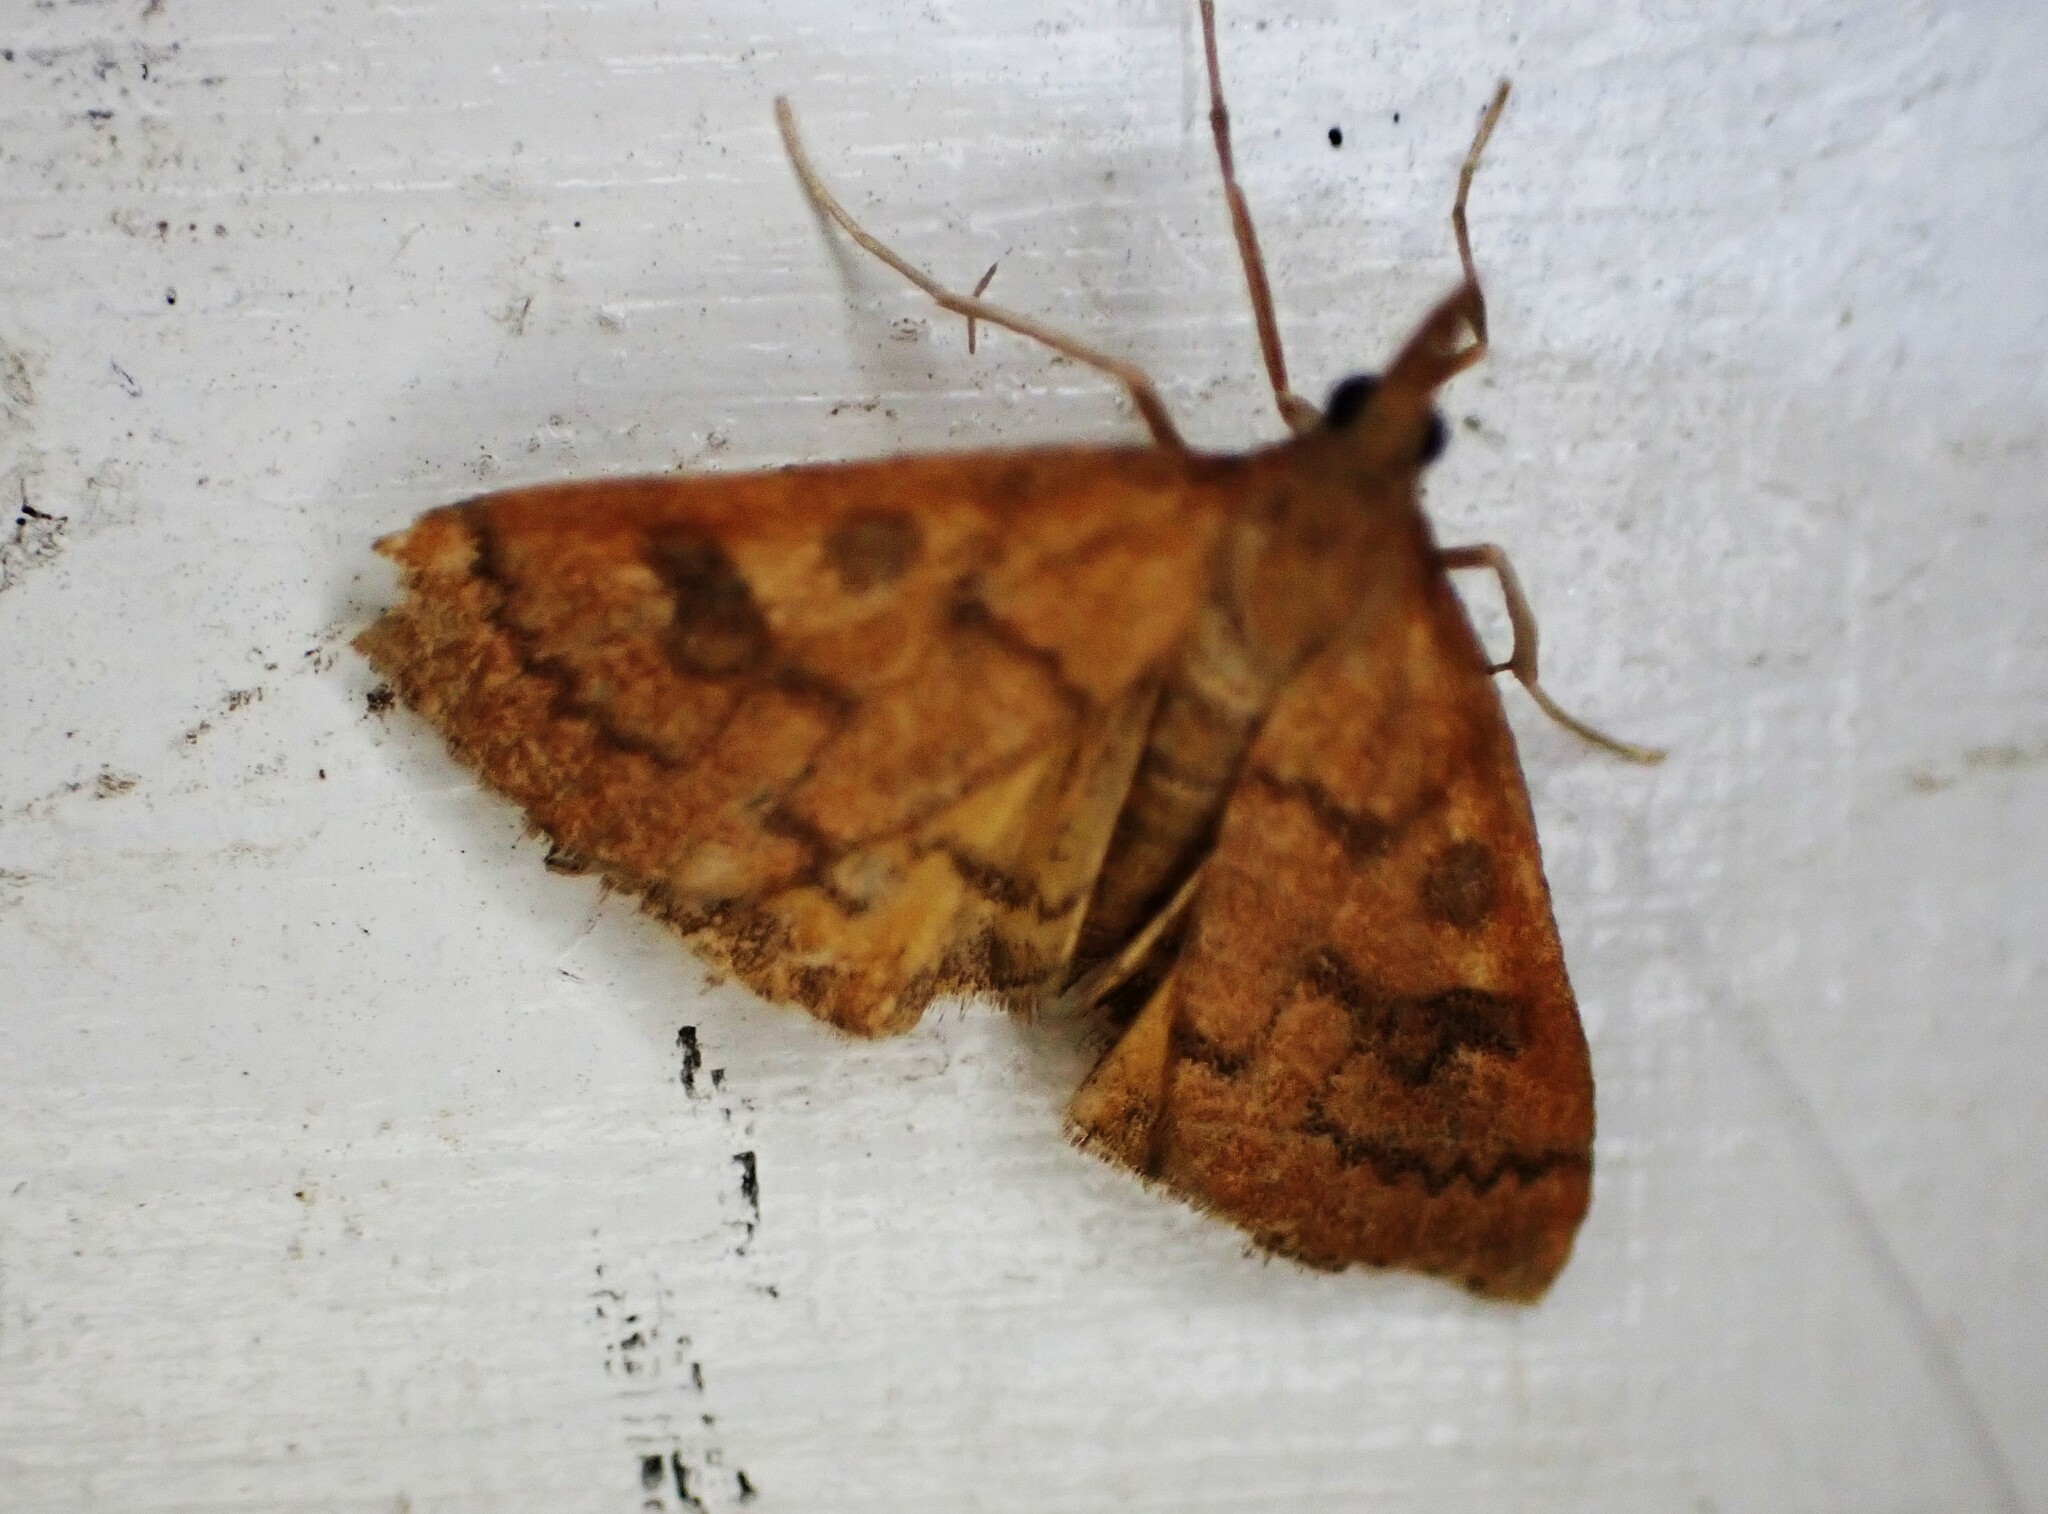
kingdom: Animalia
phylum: Arthropoda
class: Insecta
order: Lepidoptera
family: Crambidae
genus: Udea
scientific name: Udea Mnesictena flavidalis
